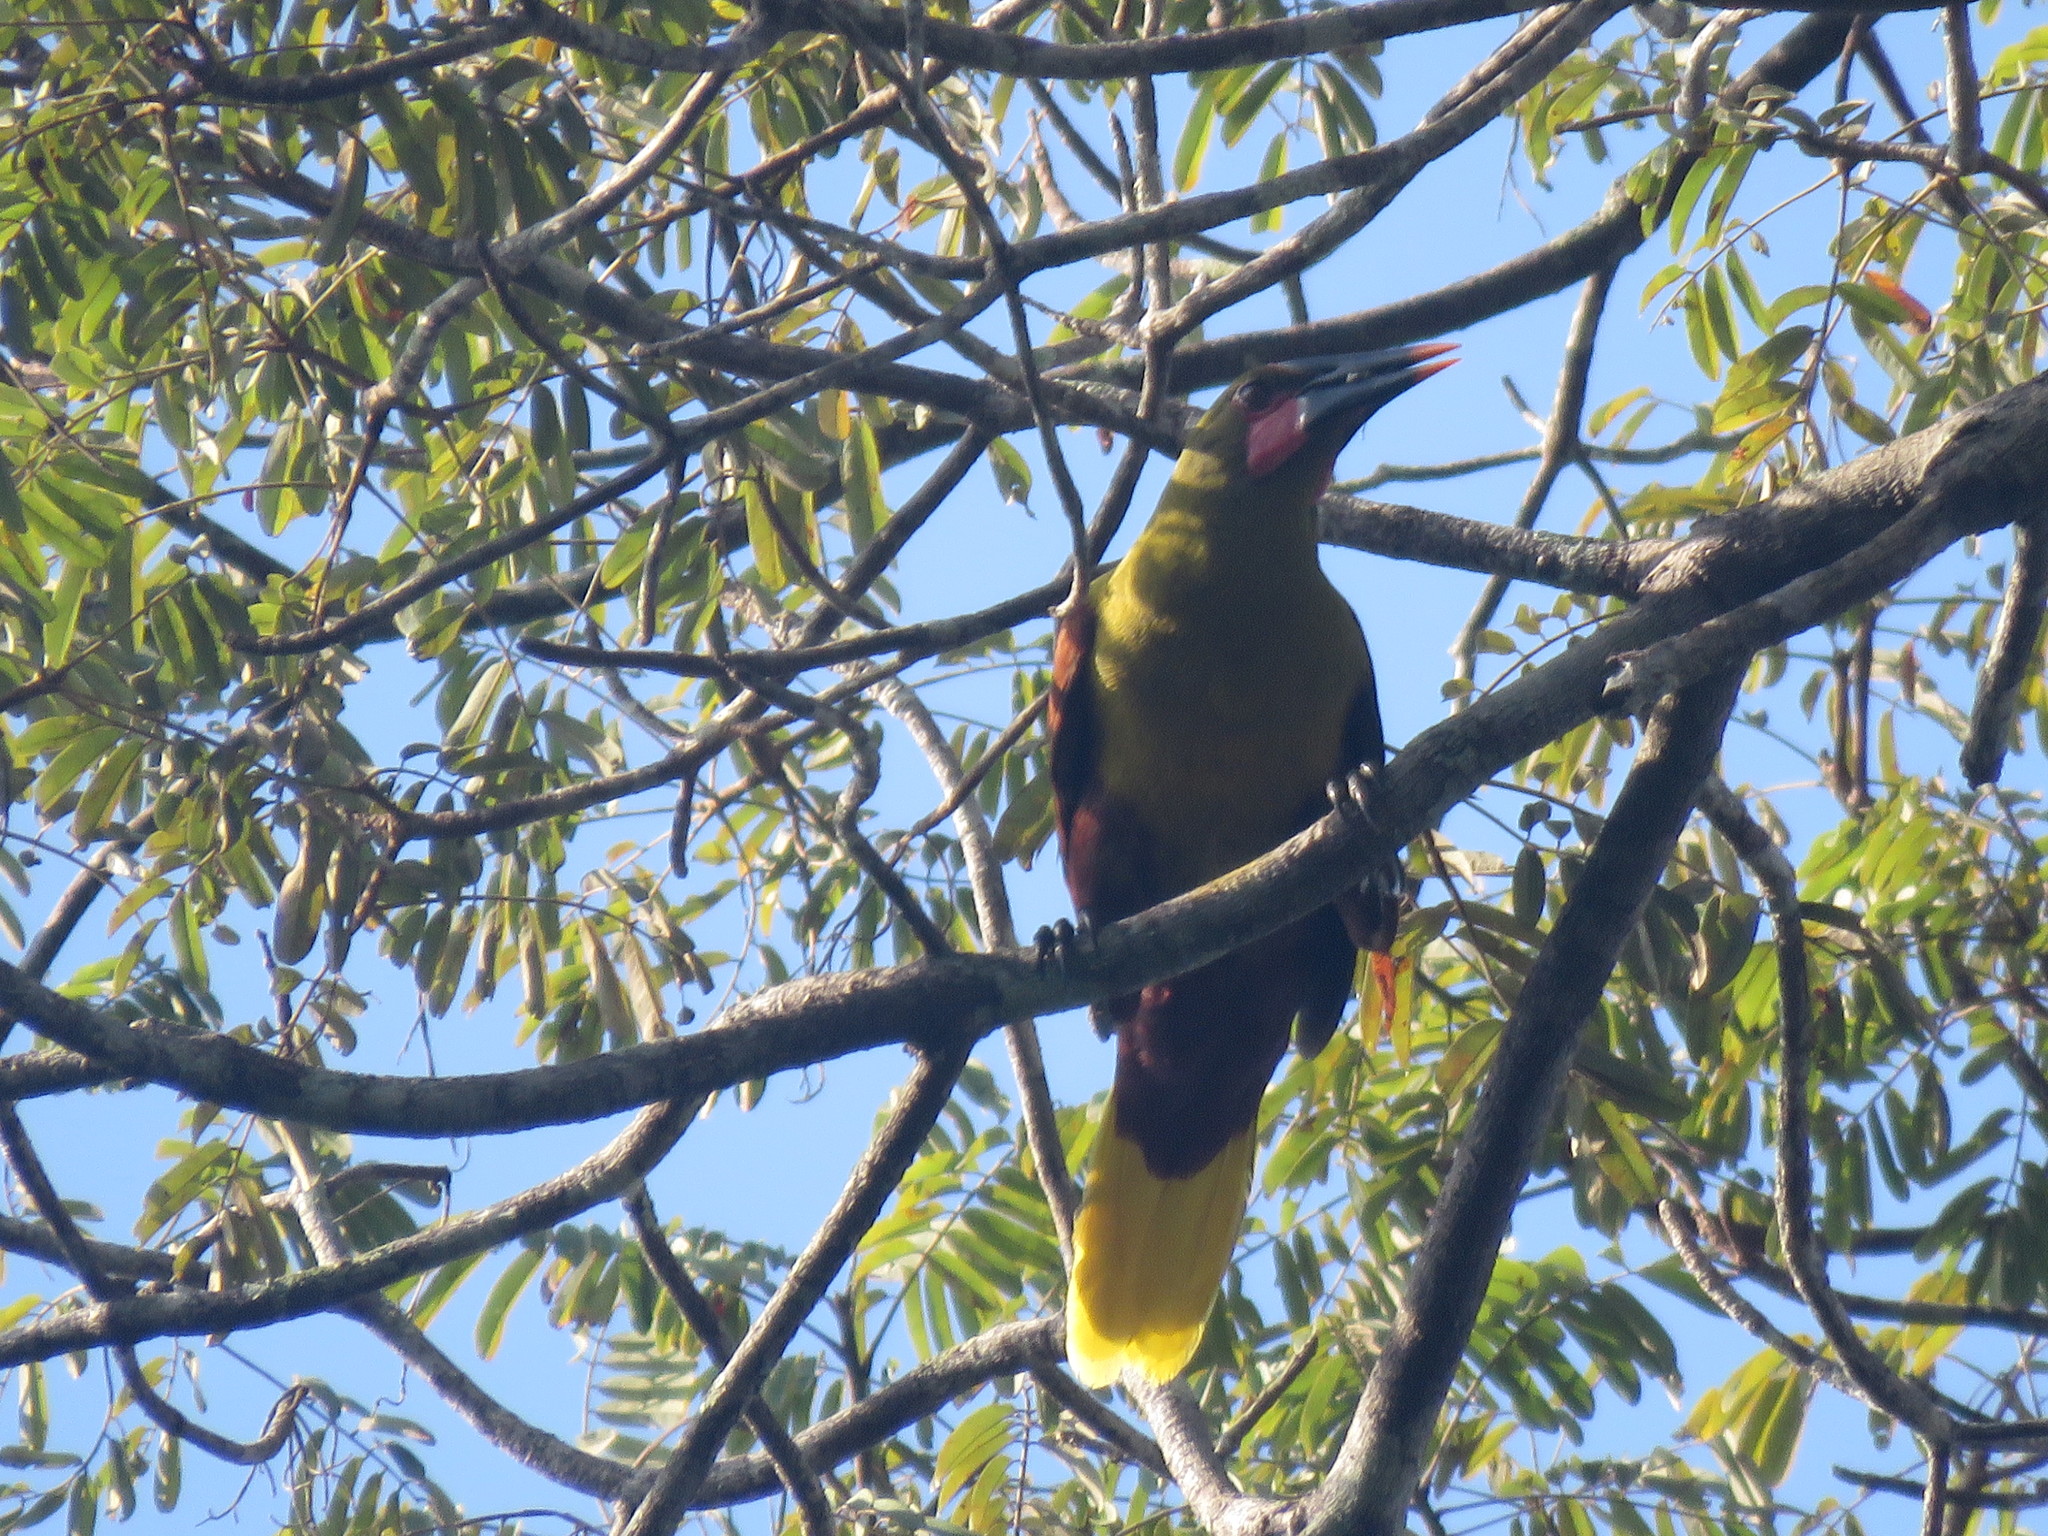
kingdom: Animalia
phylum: Chordata
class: Aves
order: Passeriformes
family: Icteridae
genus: Psarocolius
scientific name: Psarocolius bifasciatus
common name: Olive oropendola
